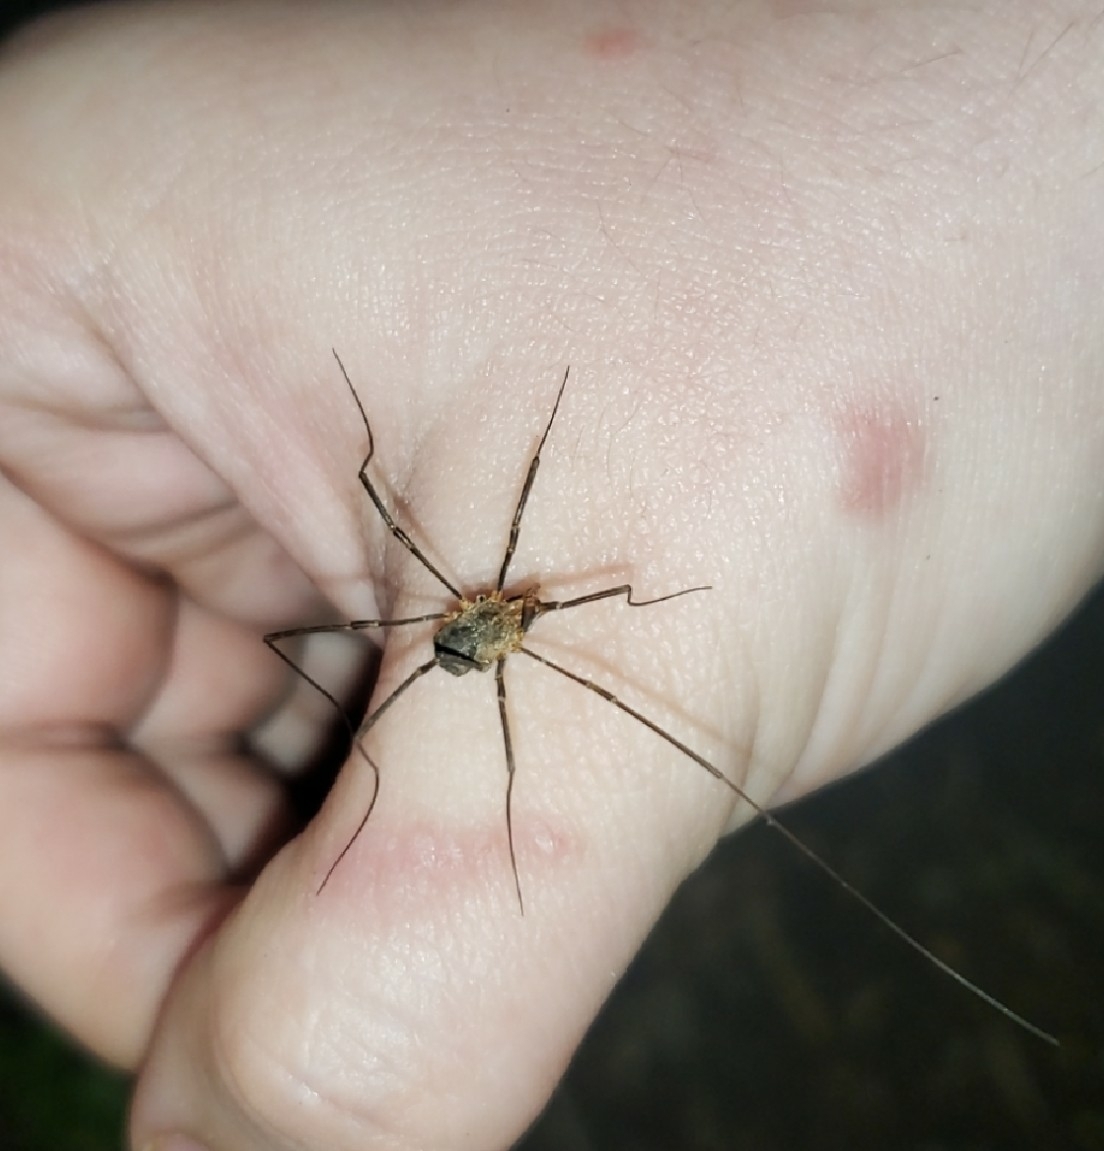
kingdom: Animalia
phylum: Arthropoda
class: Arachnida
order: Opiliones
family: Phalangiidae
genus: Phalangium
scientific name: Phalangium opilio
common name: Daddy longleg
